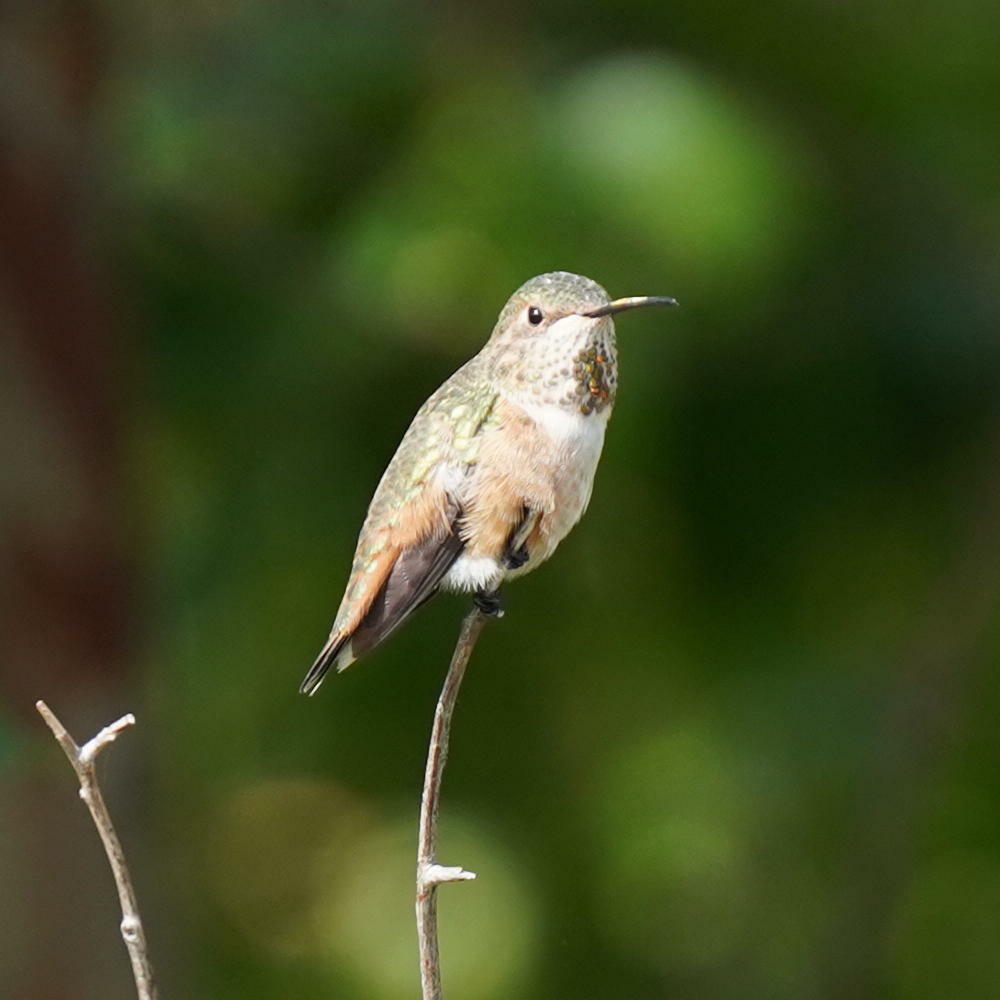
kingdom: Animalia
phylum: Chordata
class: Aves
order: Apodiformes
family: Trochilidae
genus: Selasphorus
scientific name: Selasphorus sasin
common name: Allen's hummingbird
